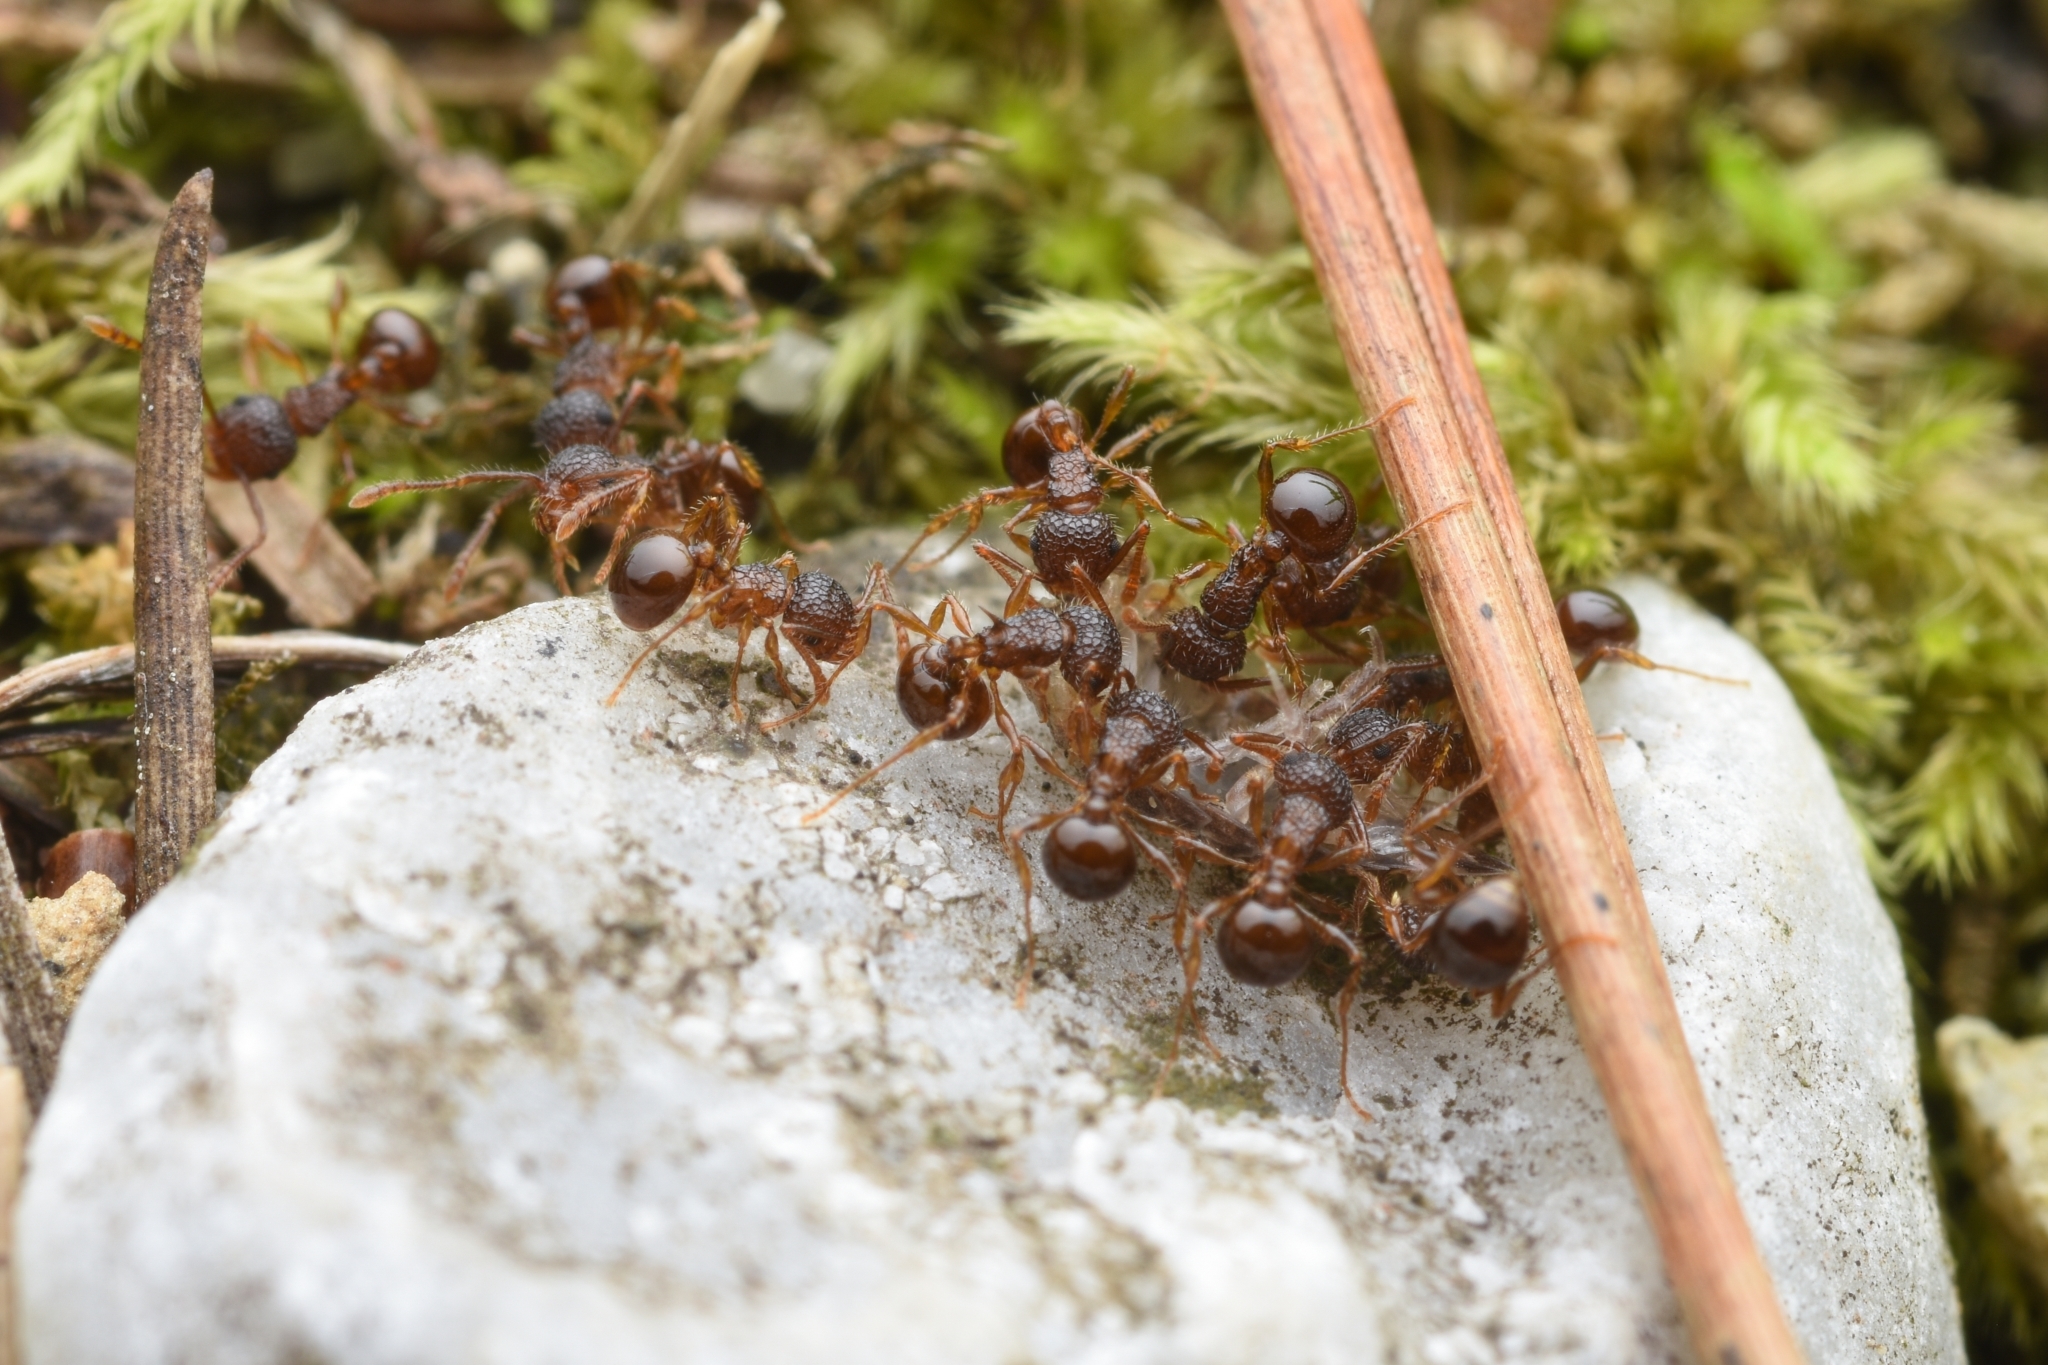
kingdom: Animalia
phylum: Arthropoda
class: Insecta
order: Hymenoptera
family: Formicidae
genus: Pristomyrmex
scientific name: Pristomyrmex punctatus
